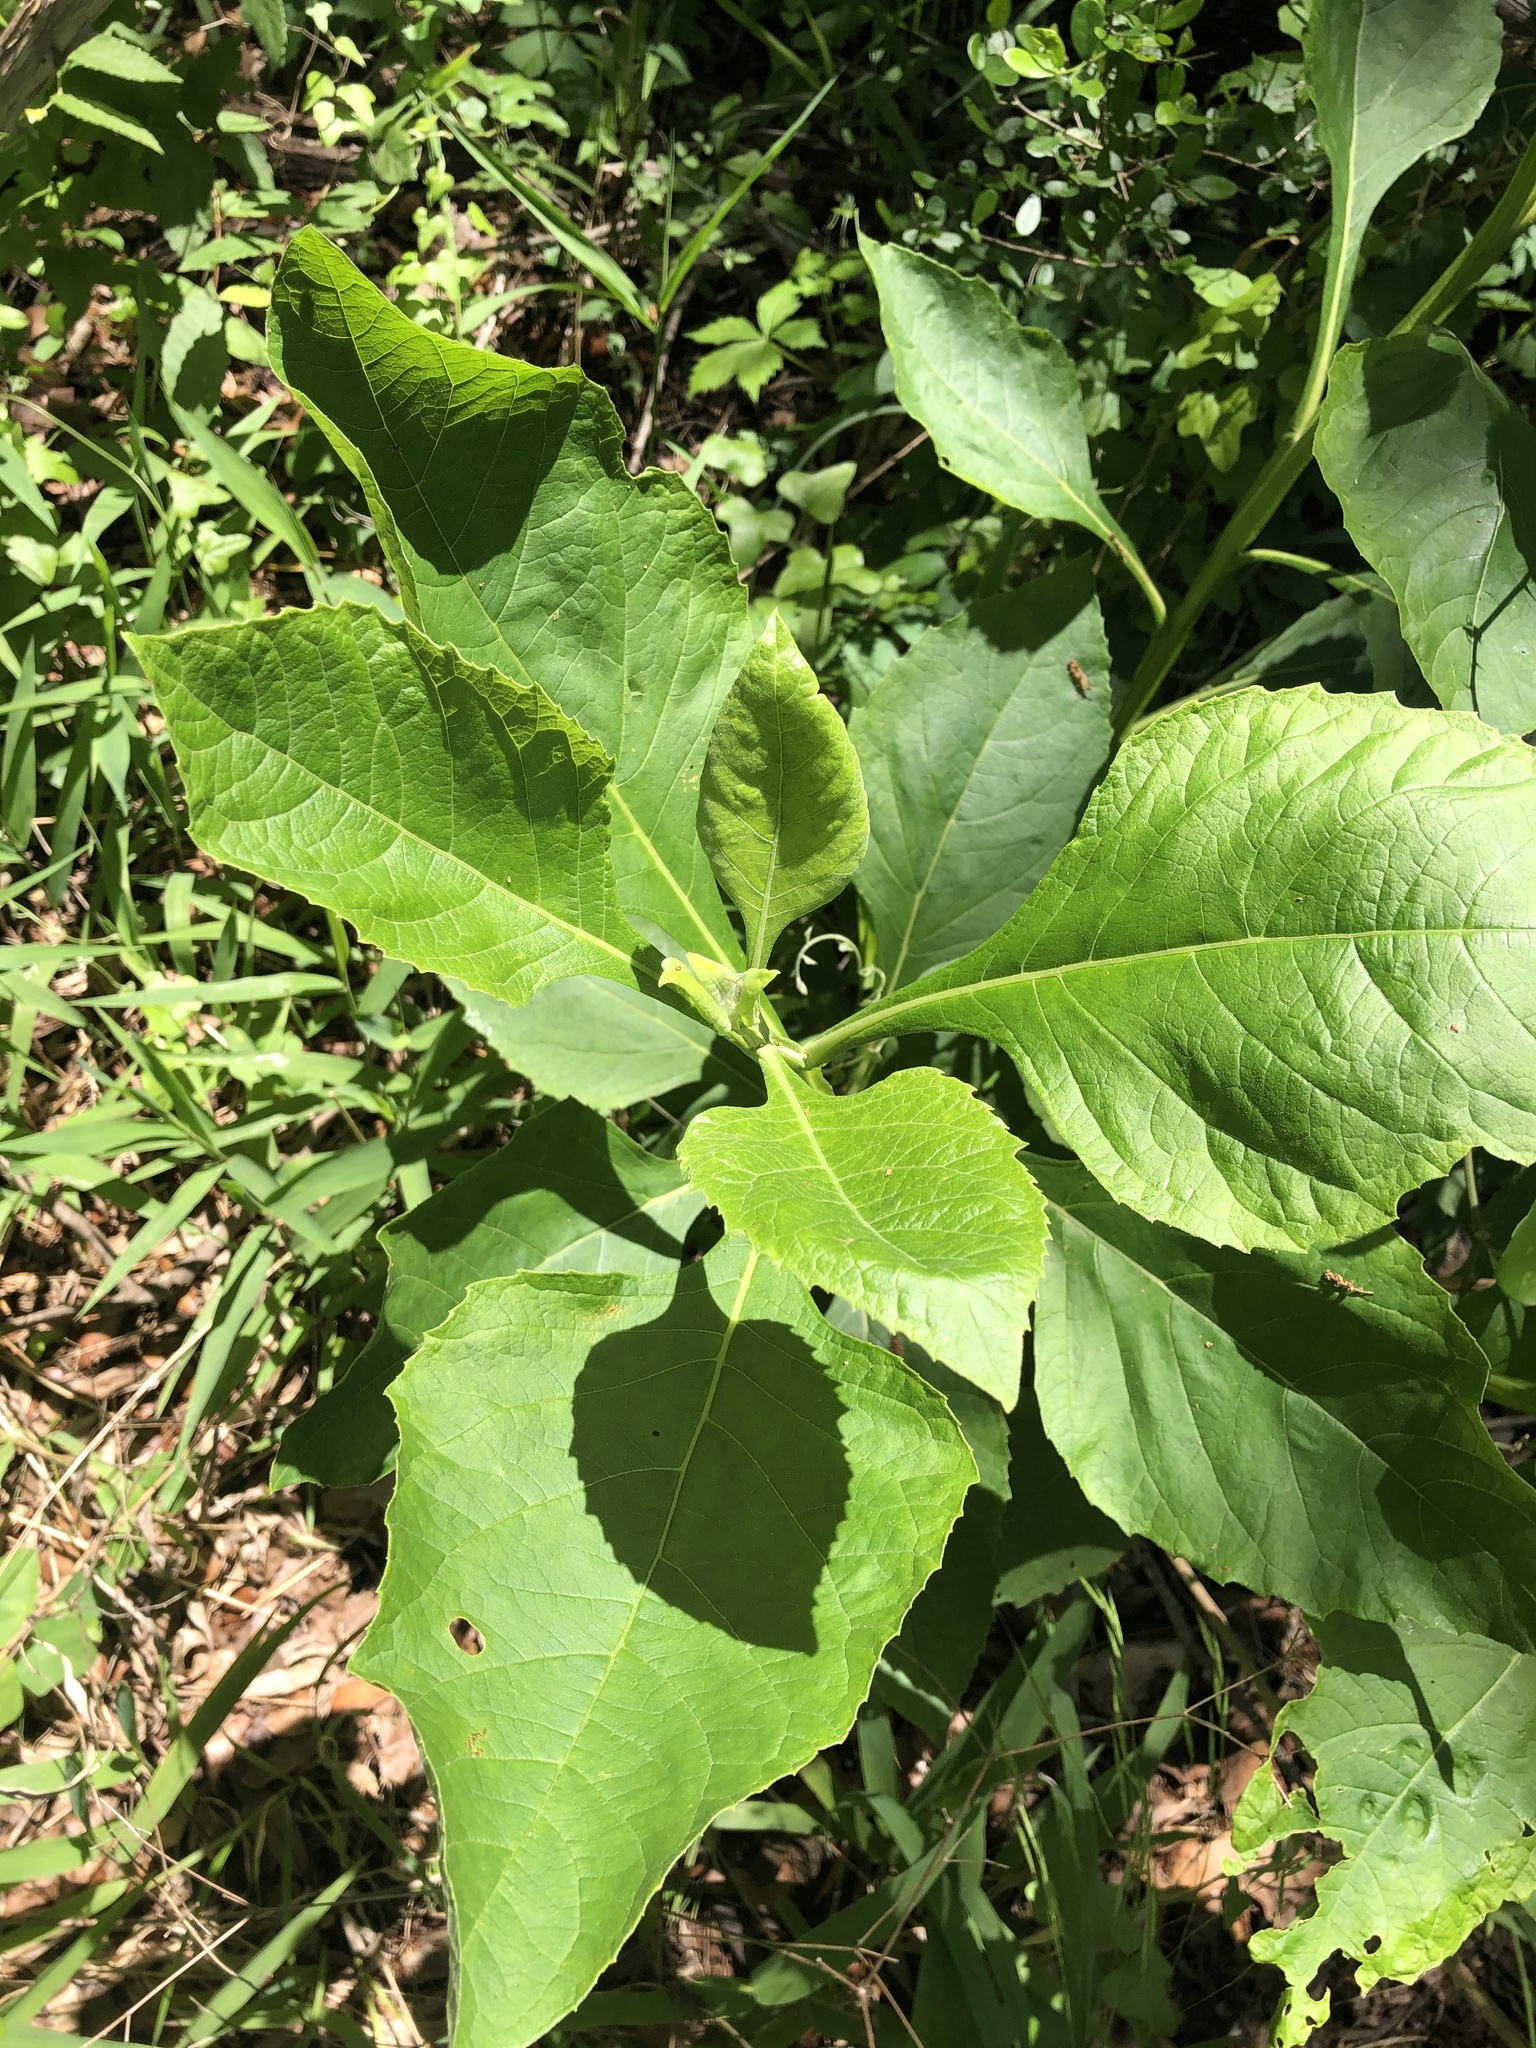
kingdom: Plantae
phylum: Tracheophyta
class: Magnoliopsida
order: Asterales
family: Asteraceae
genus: Verbesina
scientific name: Verbesina virginica
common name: Frostweed
